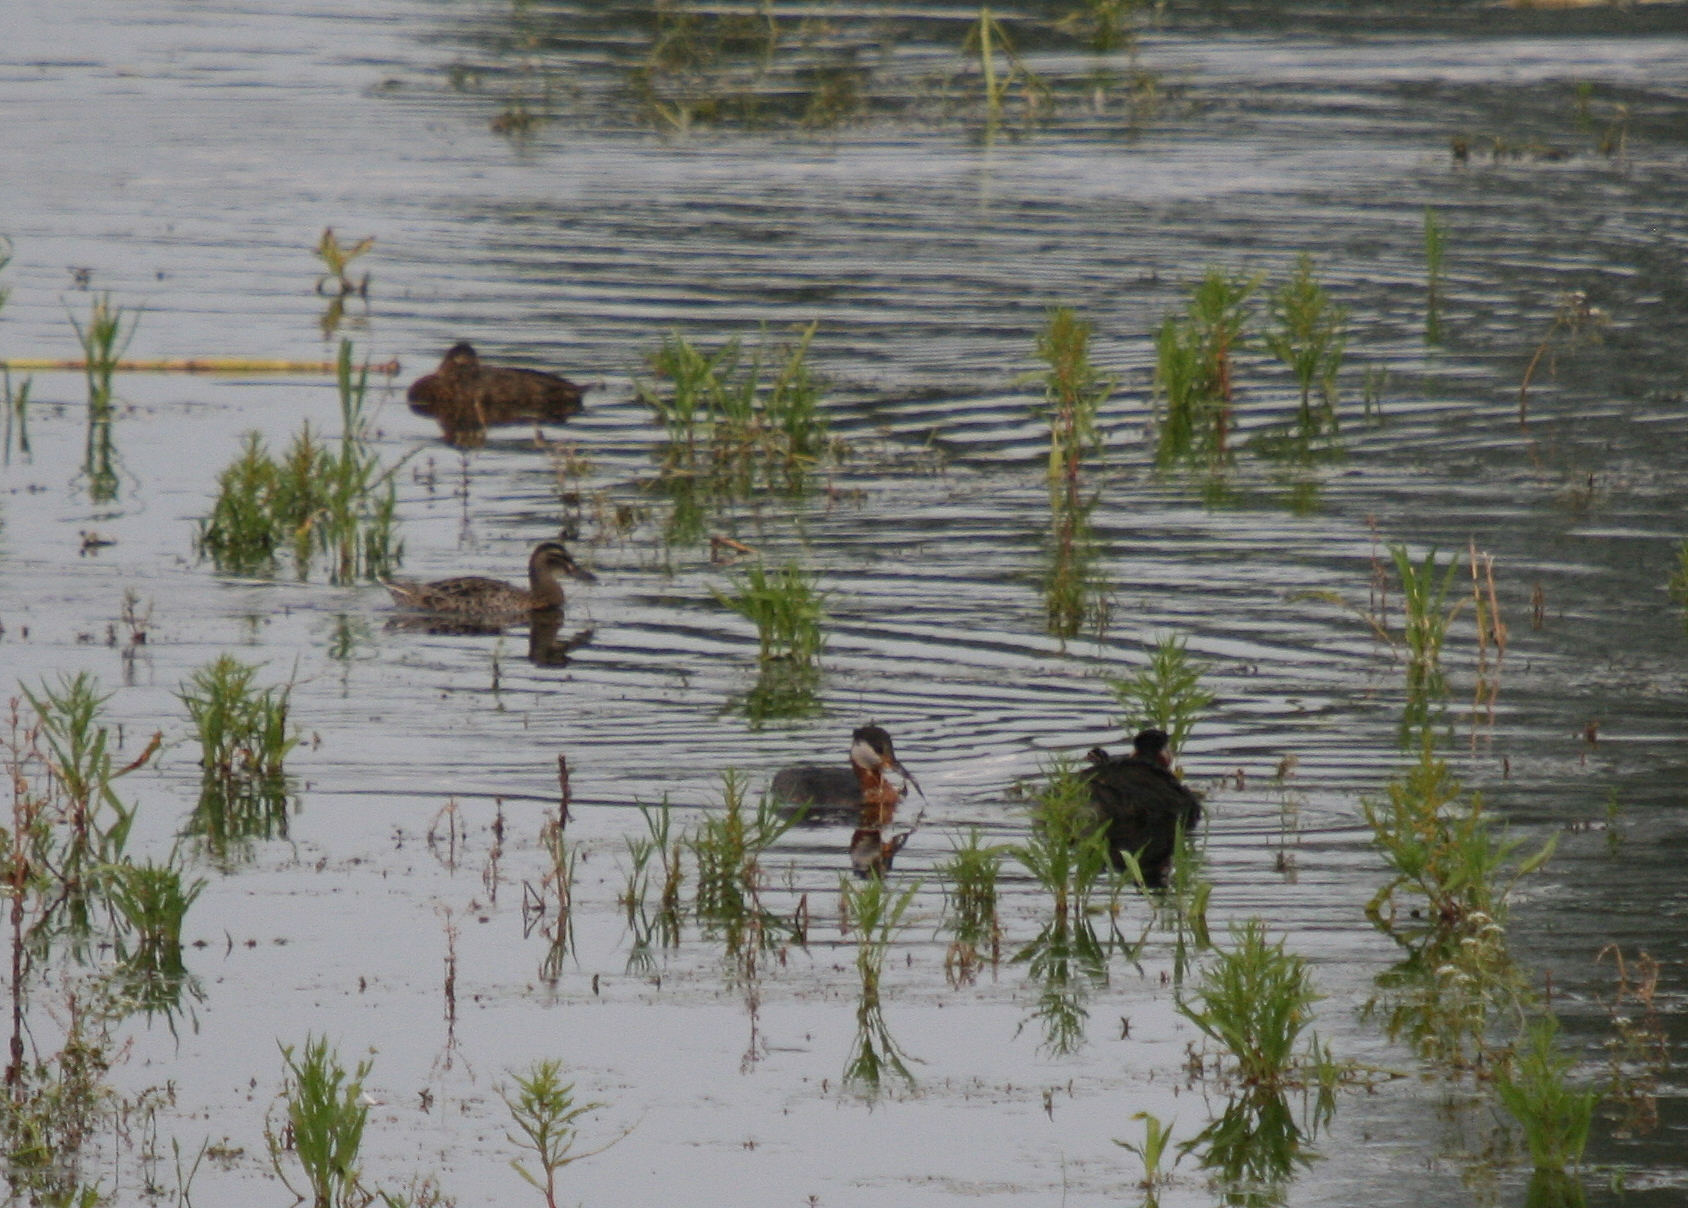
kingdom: Animalia
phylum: Chordata
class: Aves
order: Podicipediformes
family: Podicipedidae
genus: Podiceps
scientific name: Podiceps grisegena
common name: Red-necked grebe
